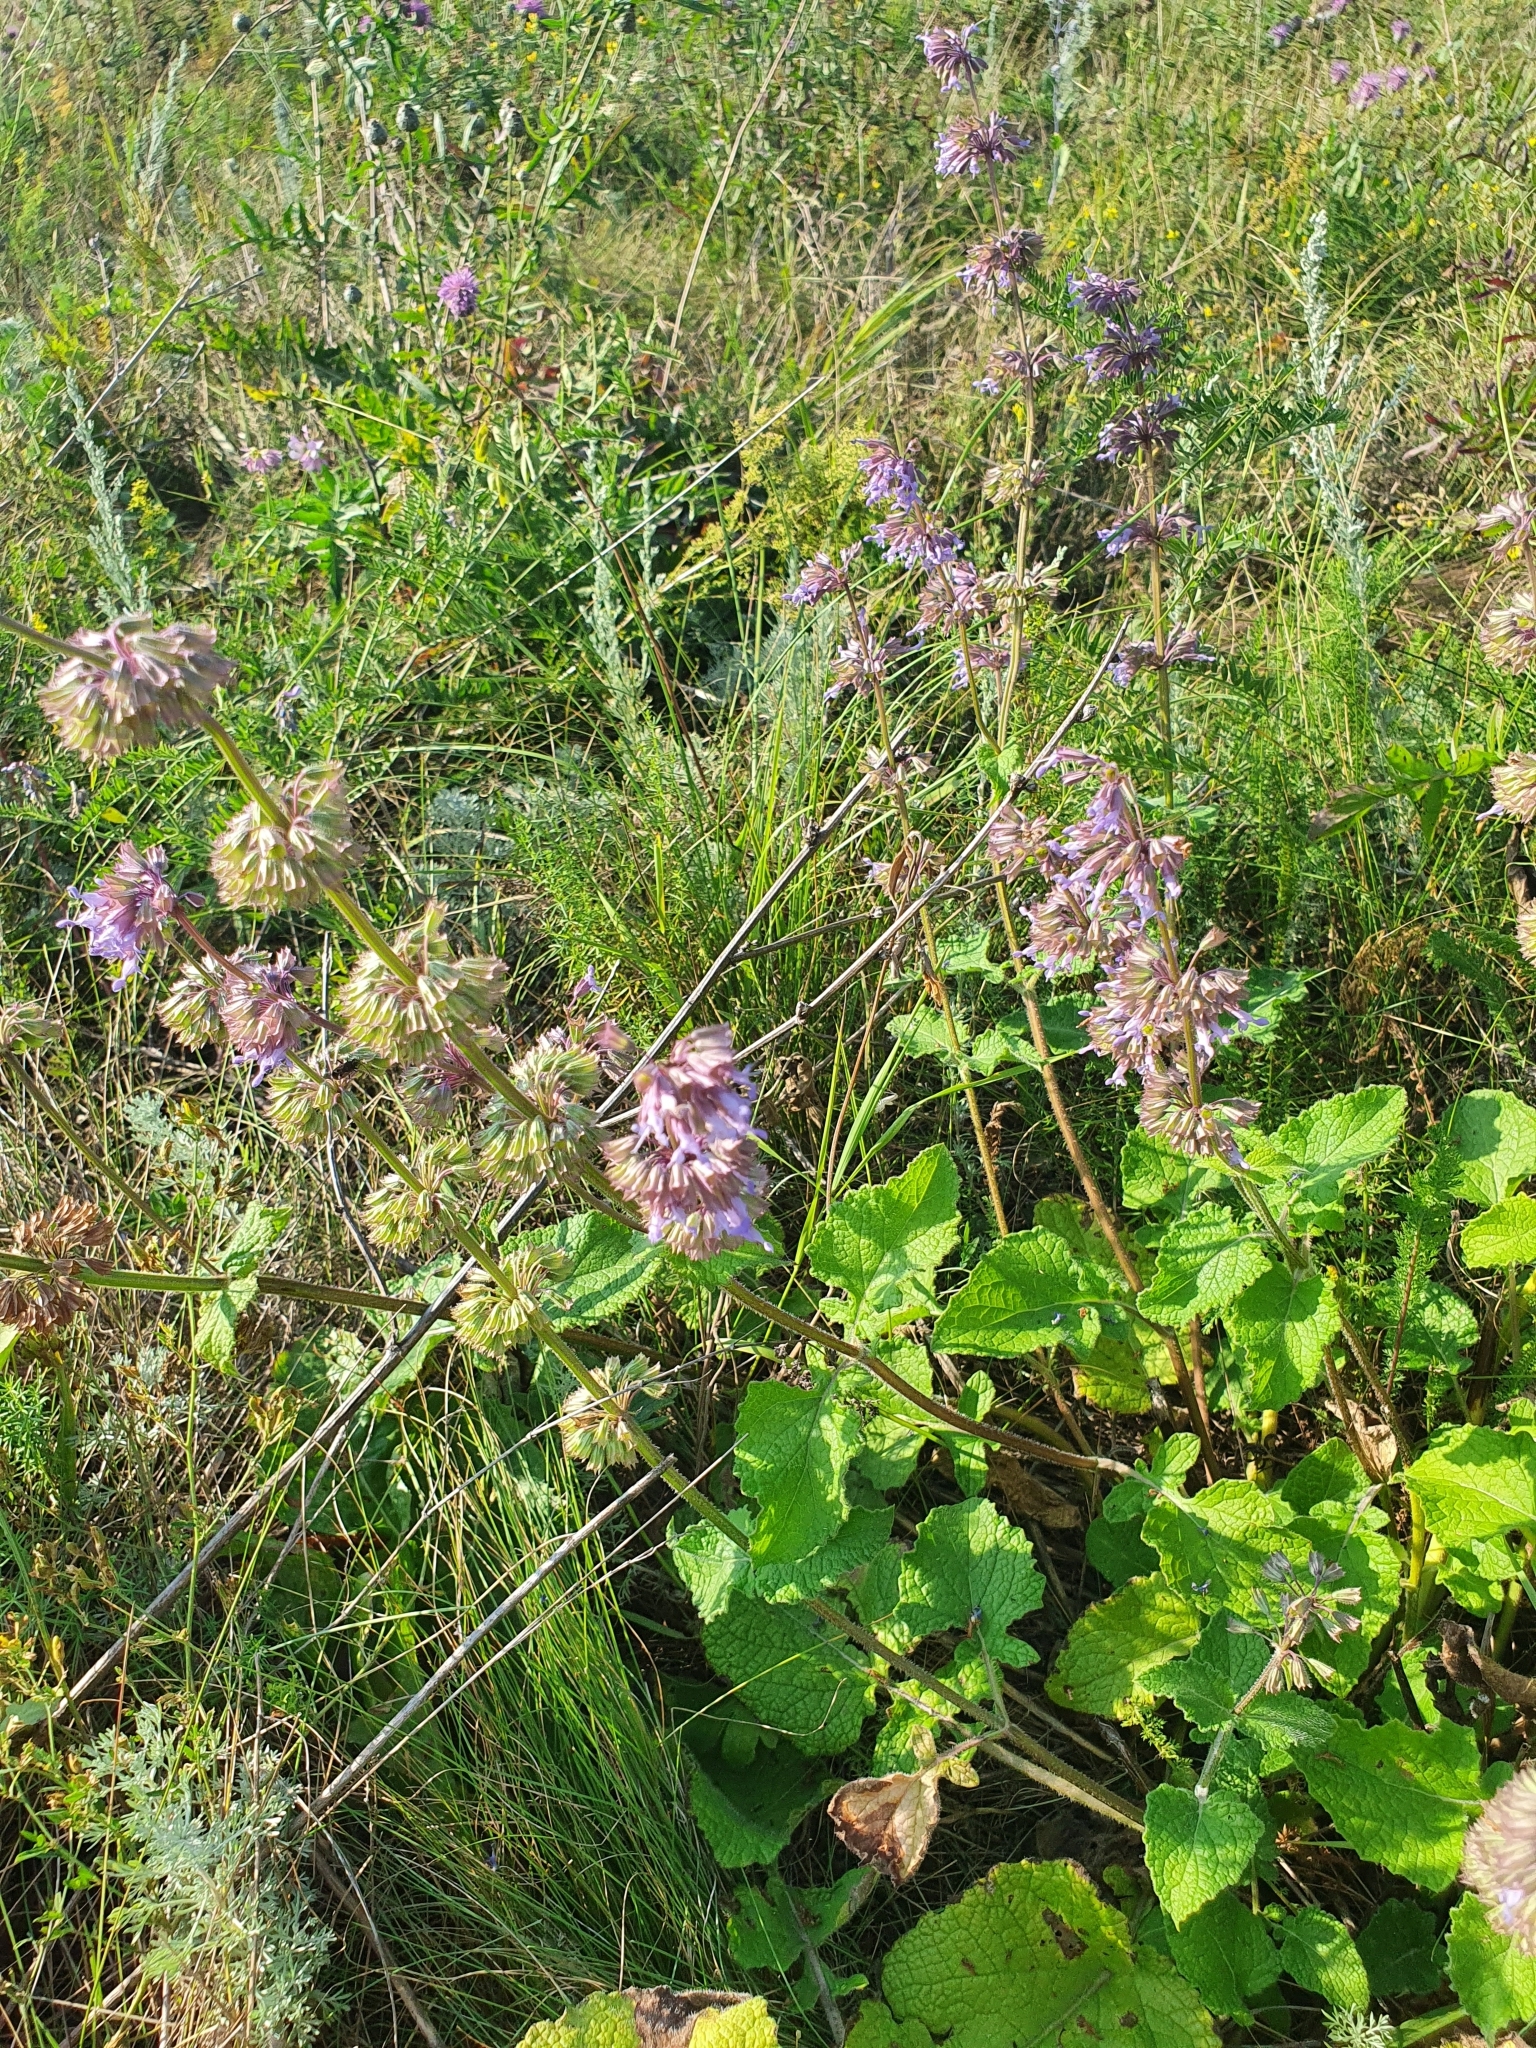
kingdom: Plantae
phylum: Tracheophyta
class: Magnoliopsida
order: Lamiales
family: Lamiaceae
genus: Salvia
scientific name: Salvia verticillata
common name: Whorled clary
